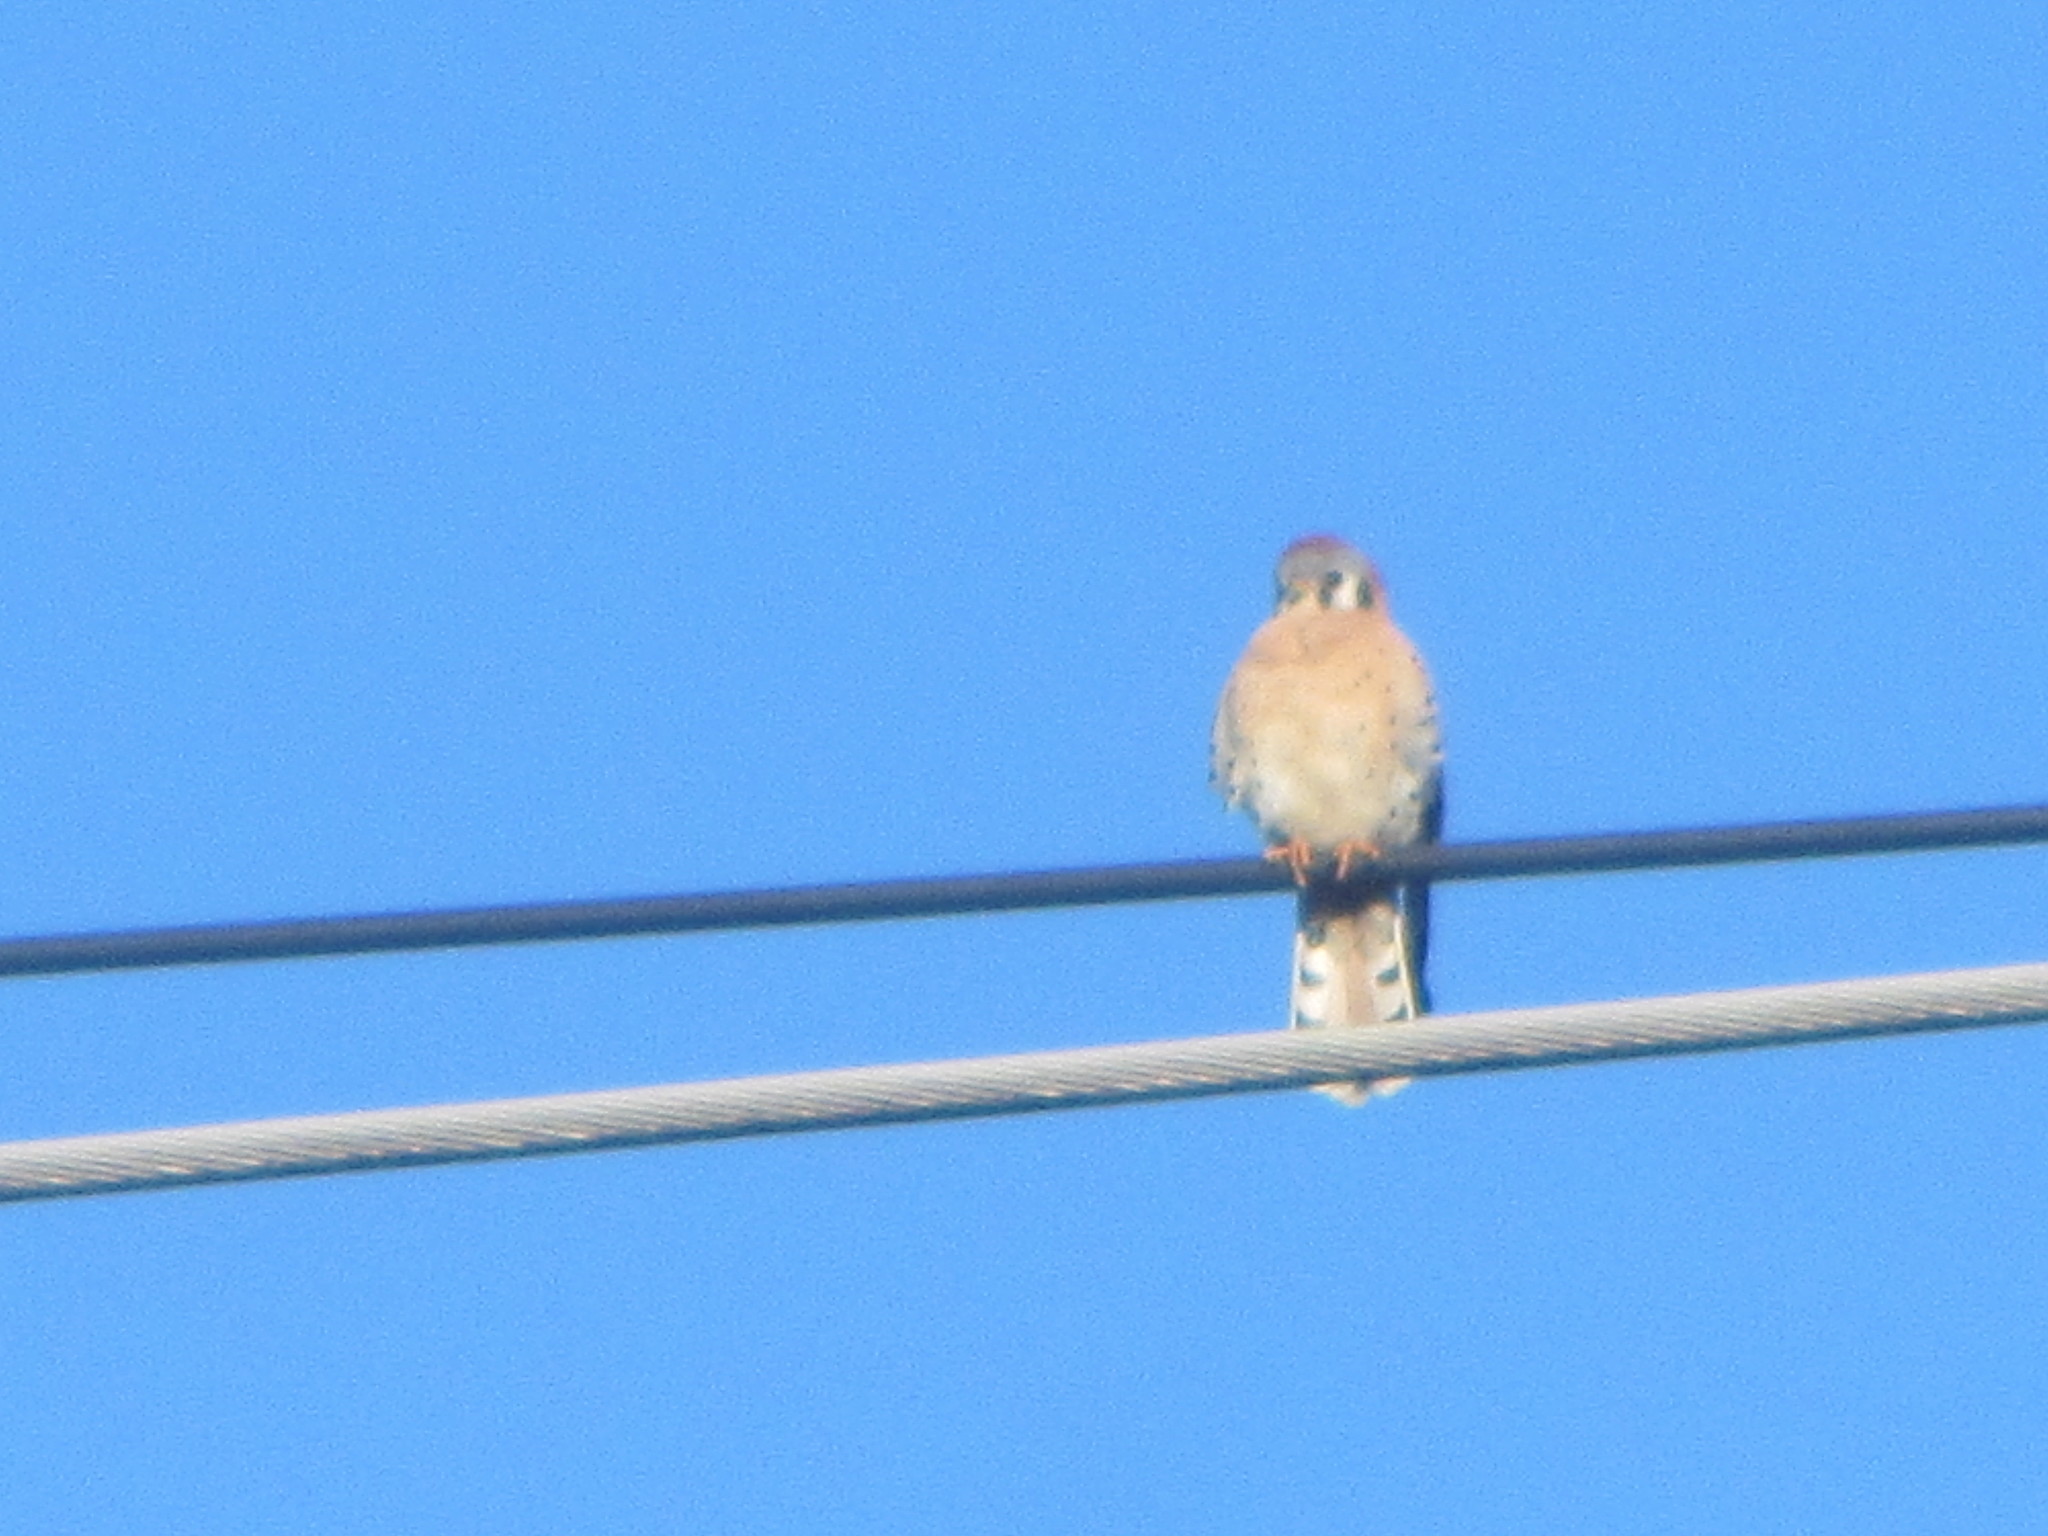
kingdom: Animalia
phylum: Chordata
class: Aves
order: Falconiformes
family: Falconidae
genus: Falco
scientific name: Falco sparverius
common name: American kestrel
